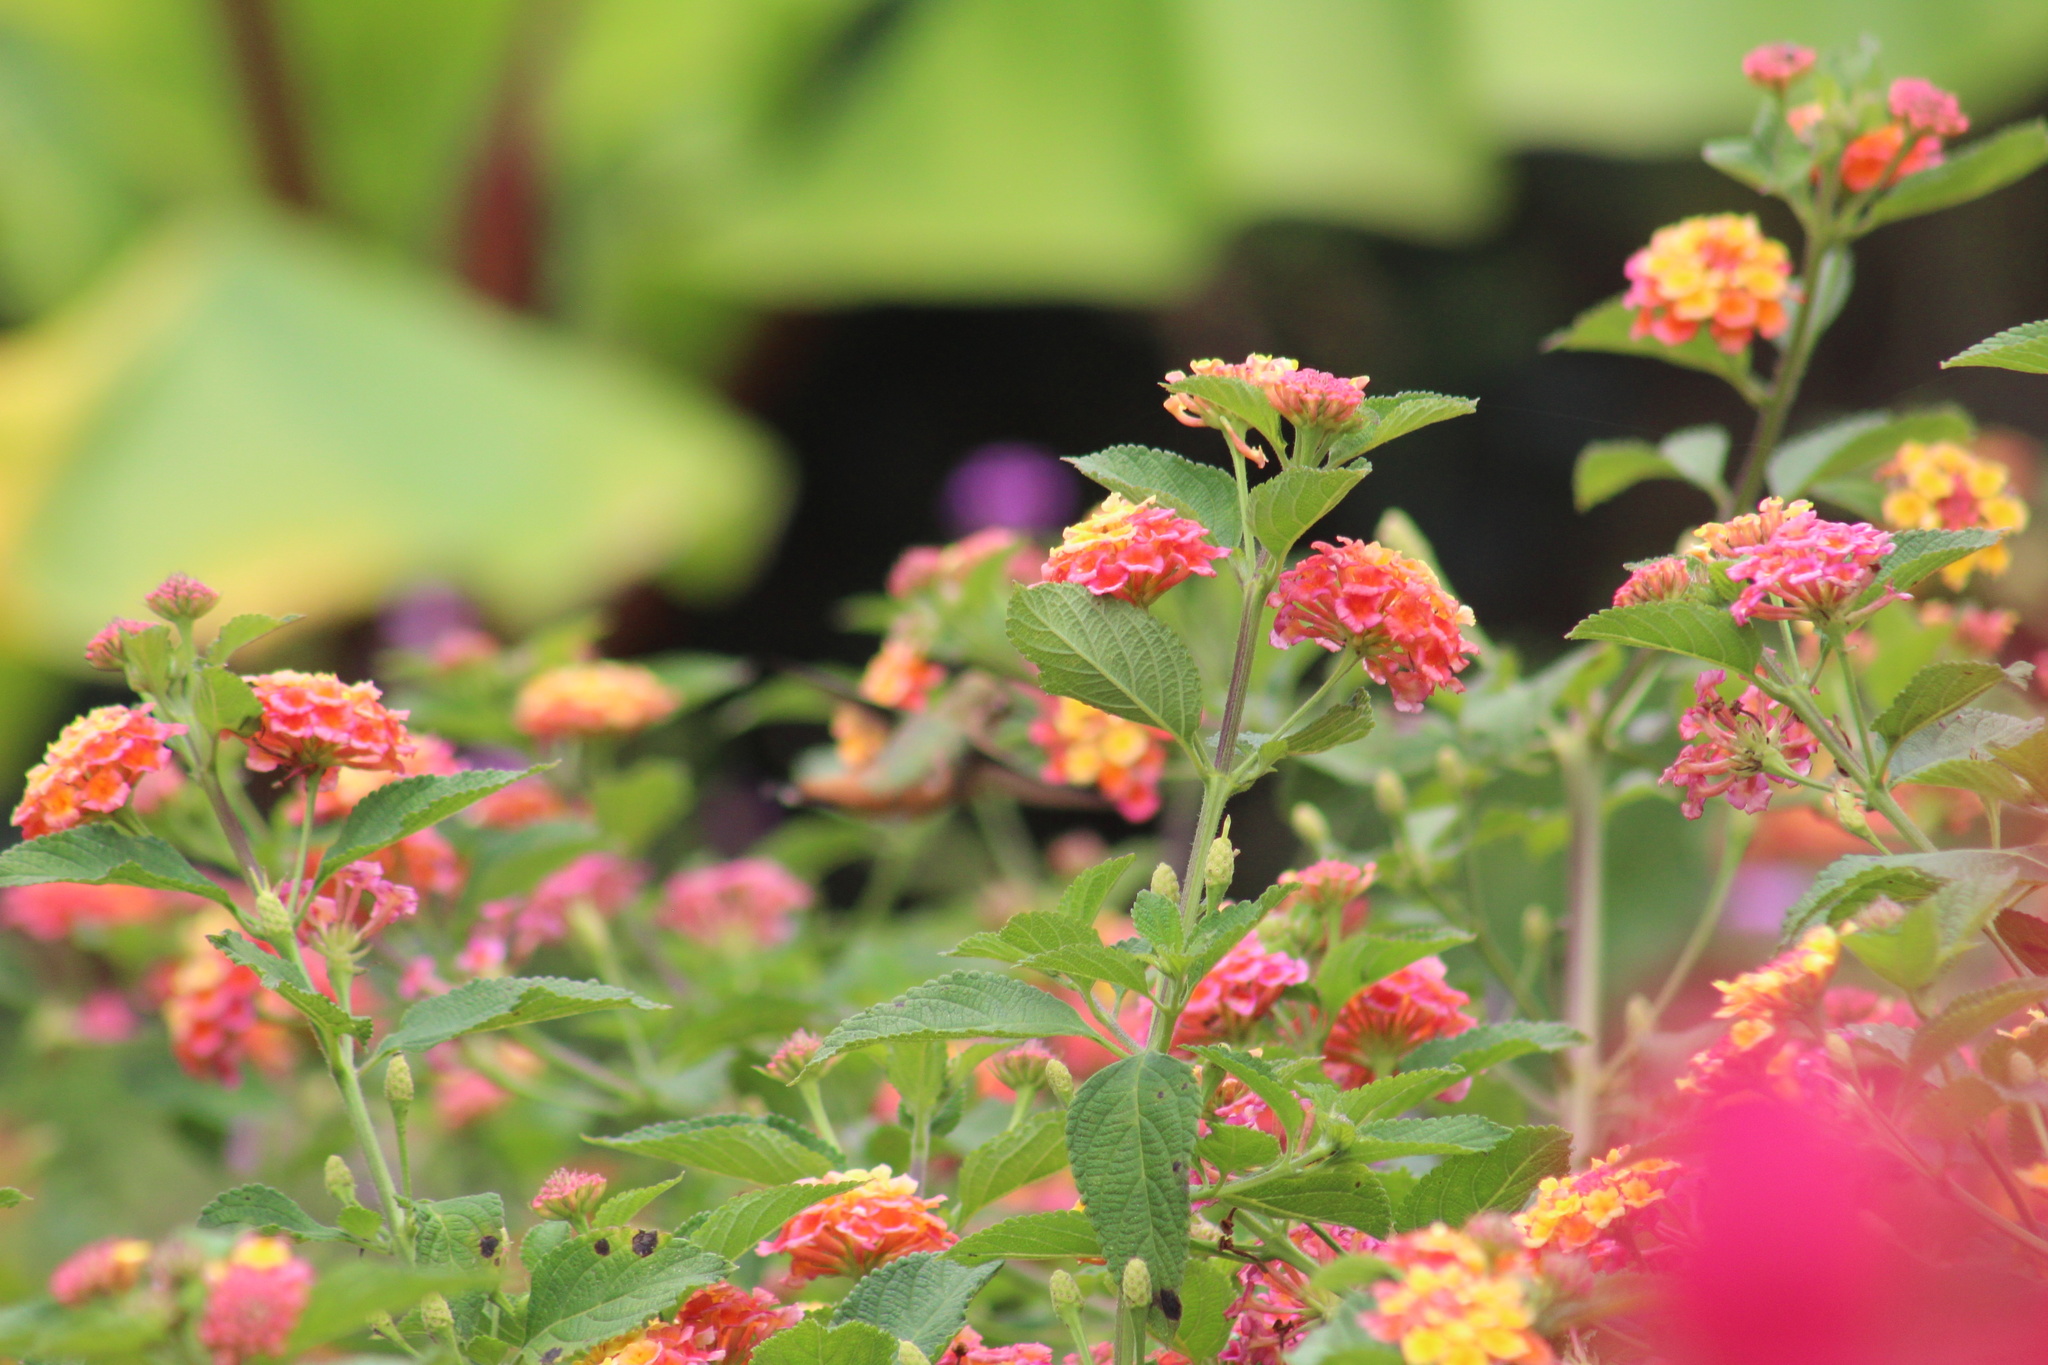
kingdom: Animalia
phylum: Chordata
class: Aves
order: Apodiformes
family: Trochilidae
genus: Selasphorus
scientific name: Selasphorus sasin
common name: Allen's hummingbird
